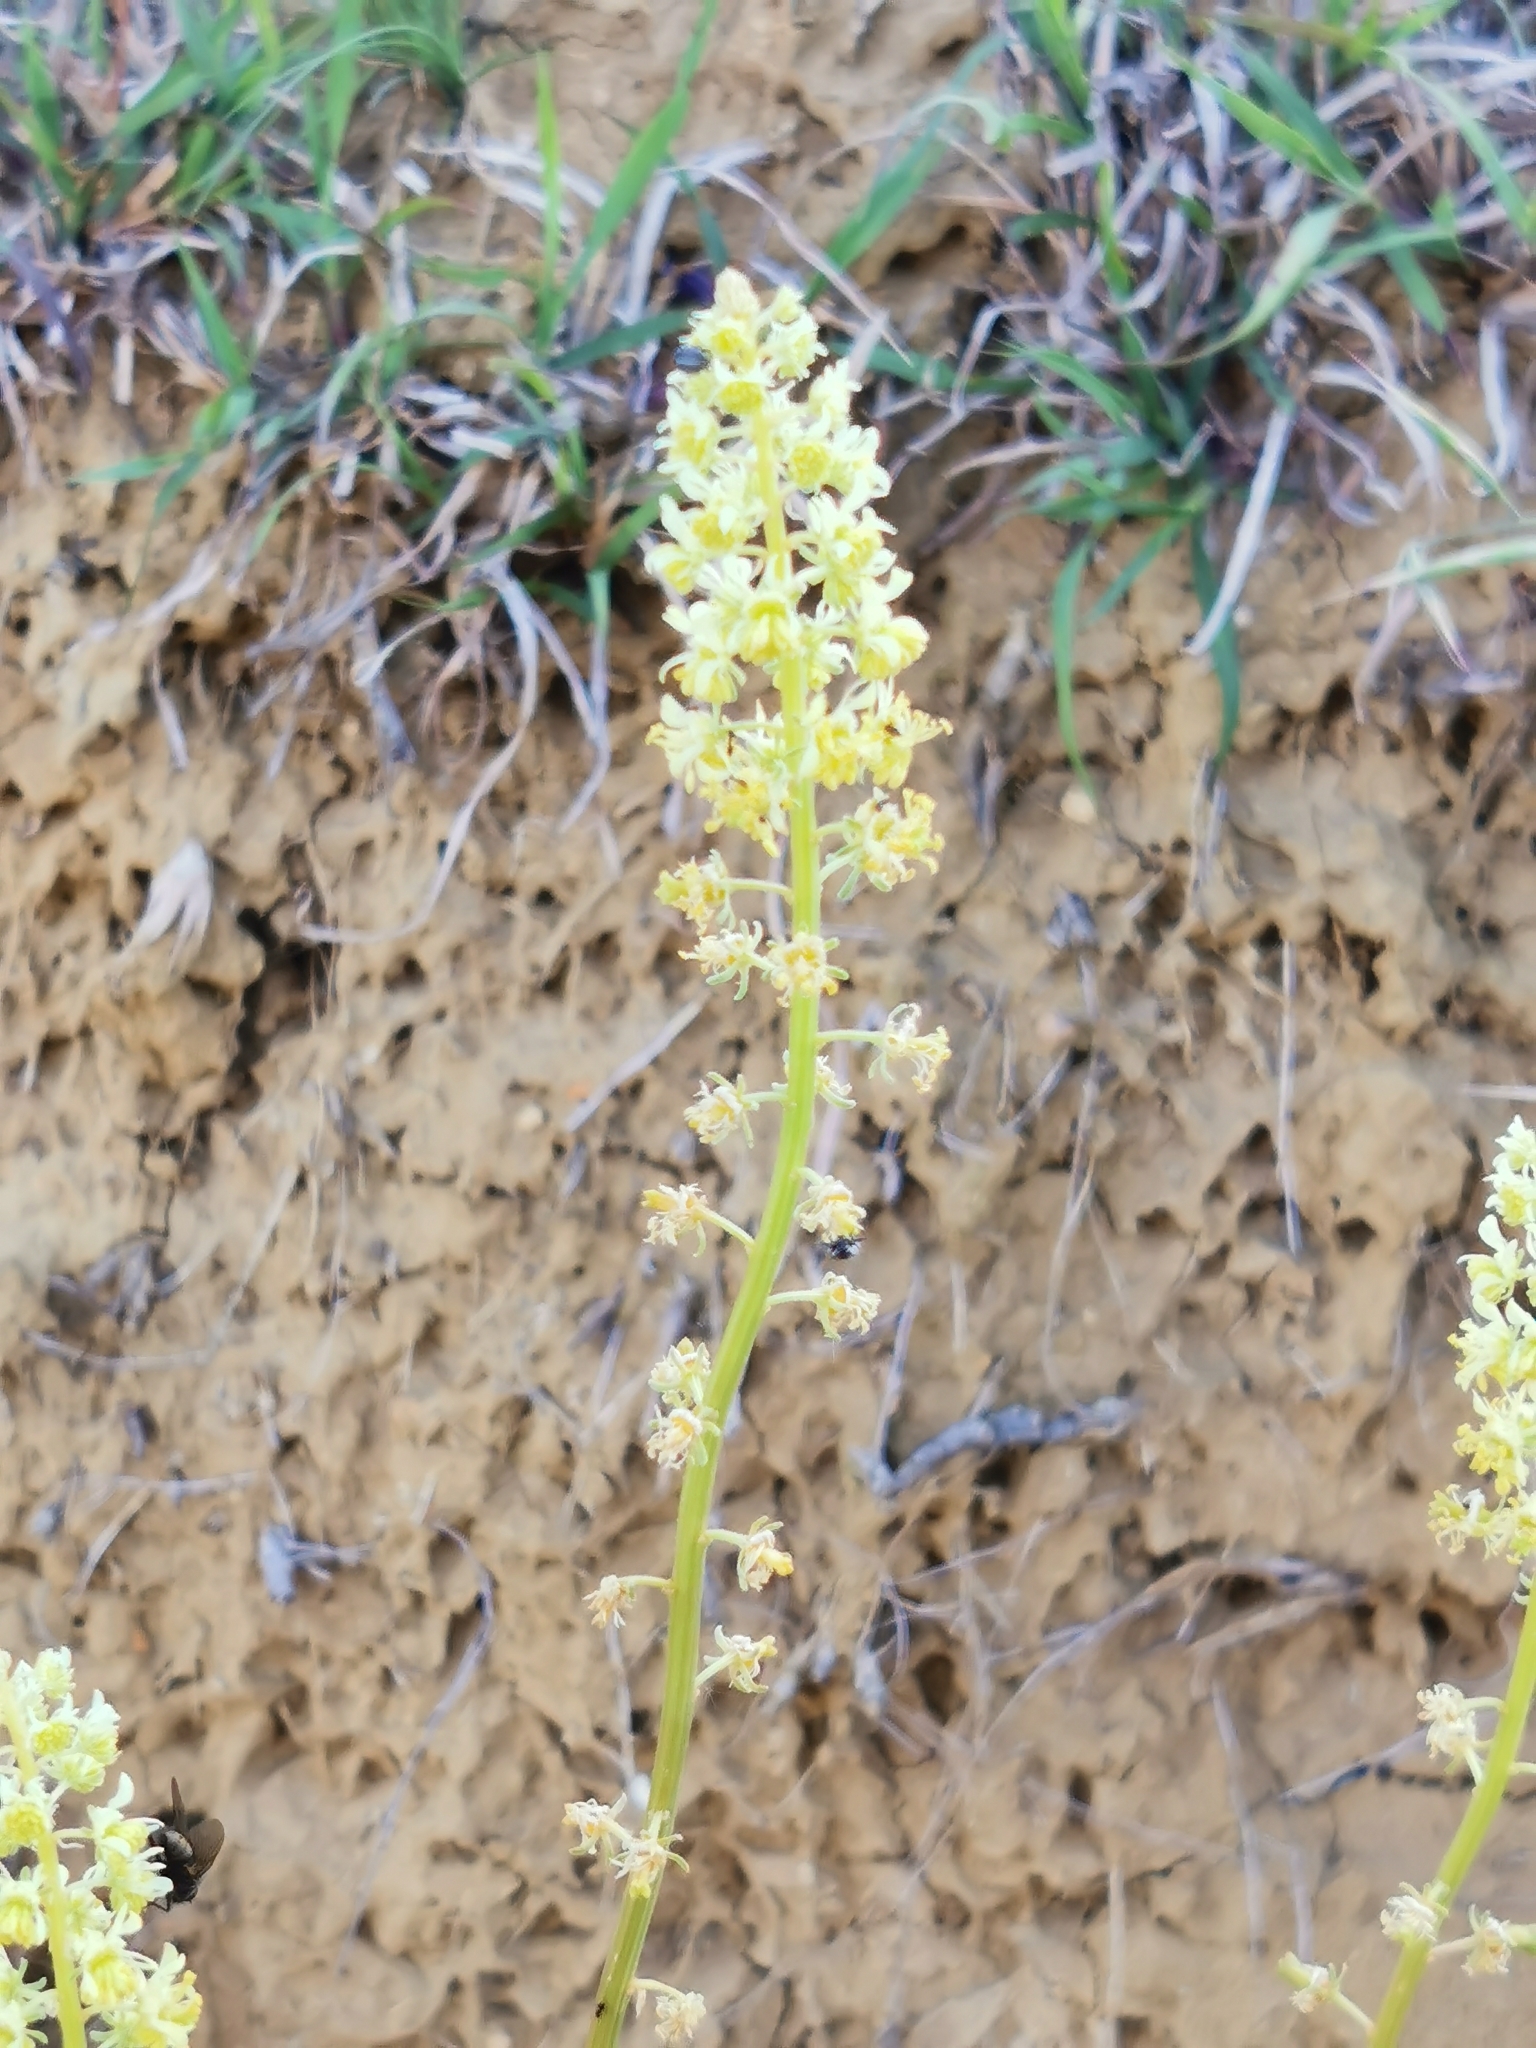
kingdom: Plantae
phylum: Tracheophyta
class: Magnoliopsida
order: Brassicales
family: Resedaceae
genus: Reseda
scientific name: Reseda lutea
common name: Wild mignonette
